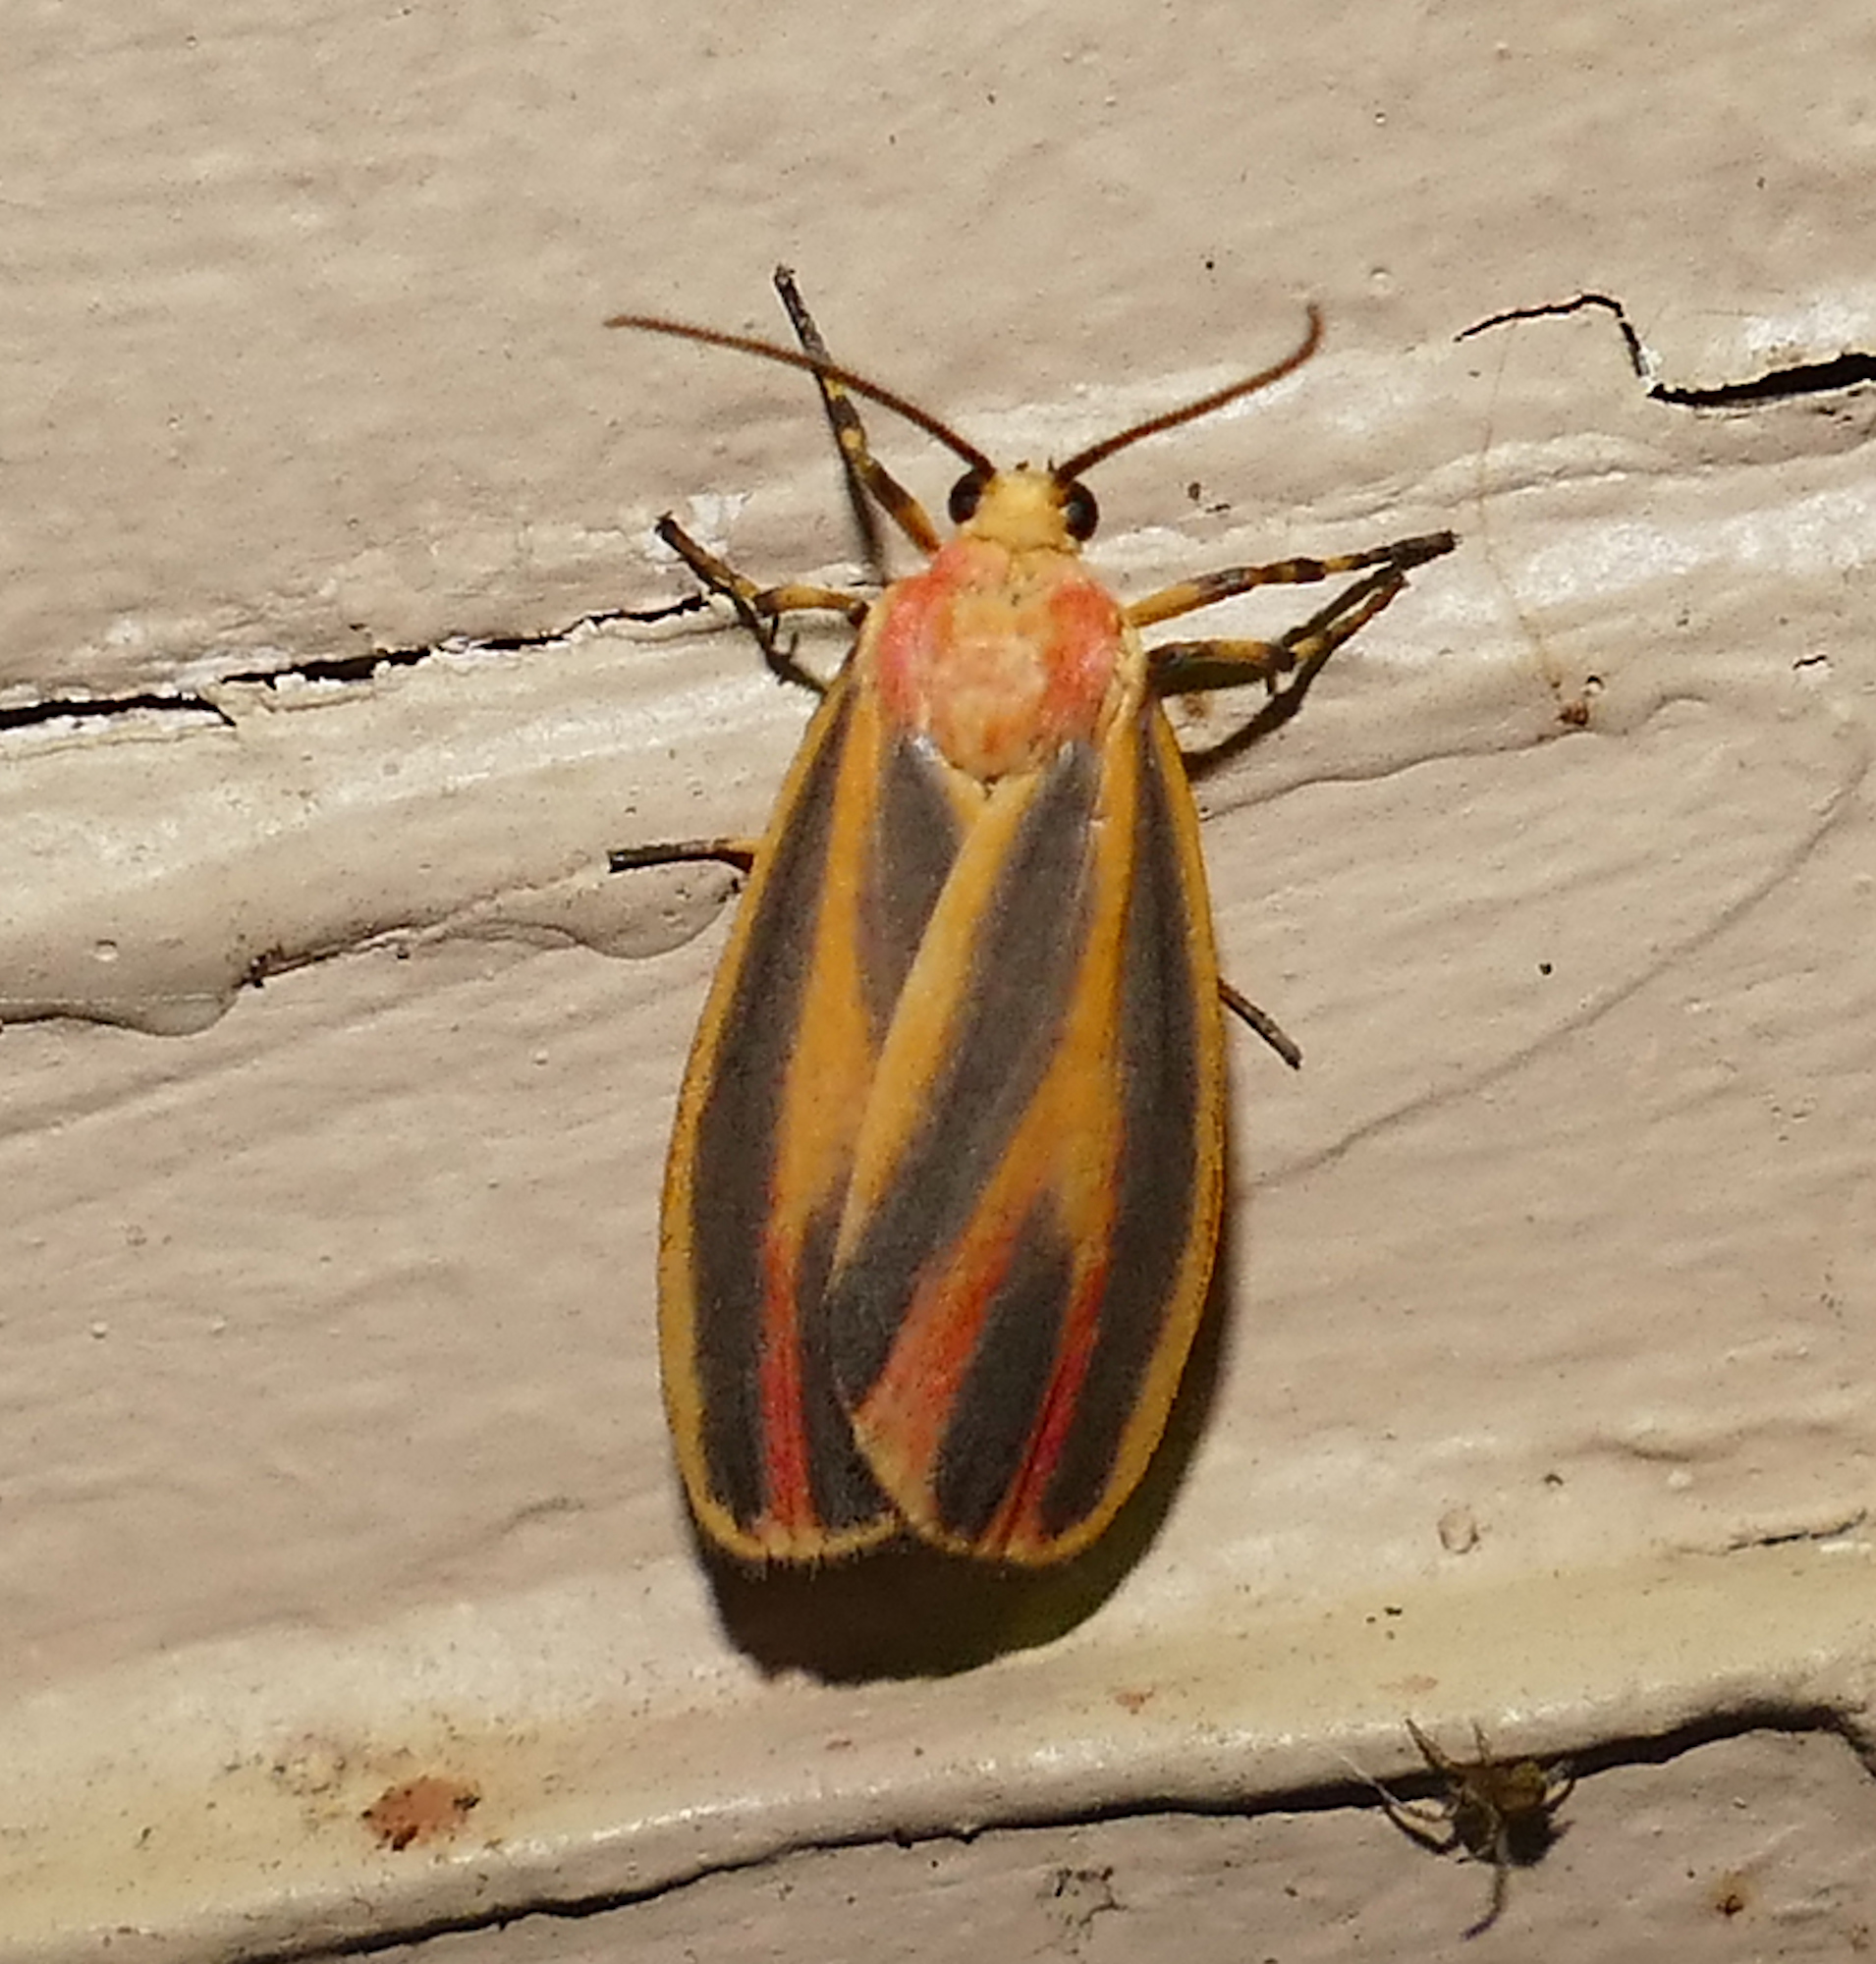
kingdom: Animalia
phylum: Arthropoda
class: Insecta
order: Lepidoptera
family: Erebidae
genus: Hypoprepia
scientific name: Hypoprepia fucosa
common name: Painted lichen moth
